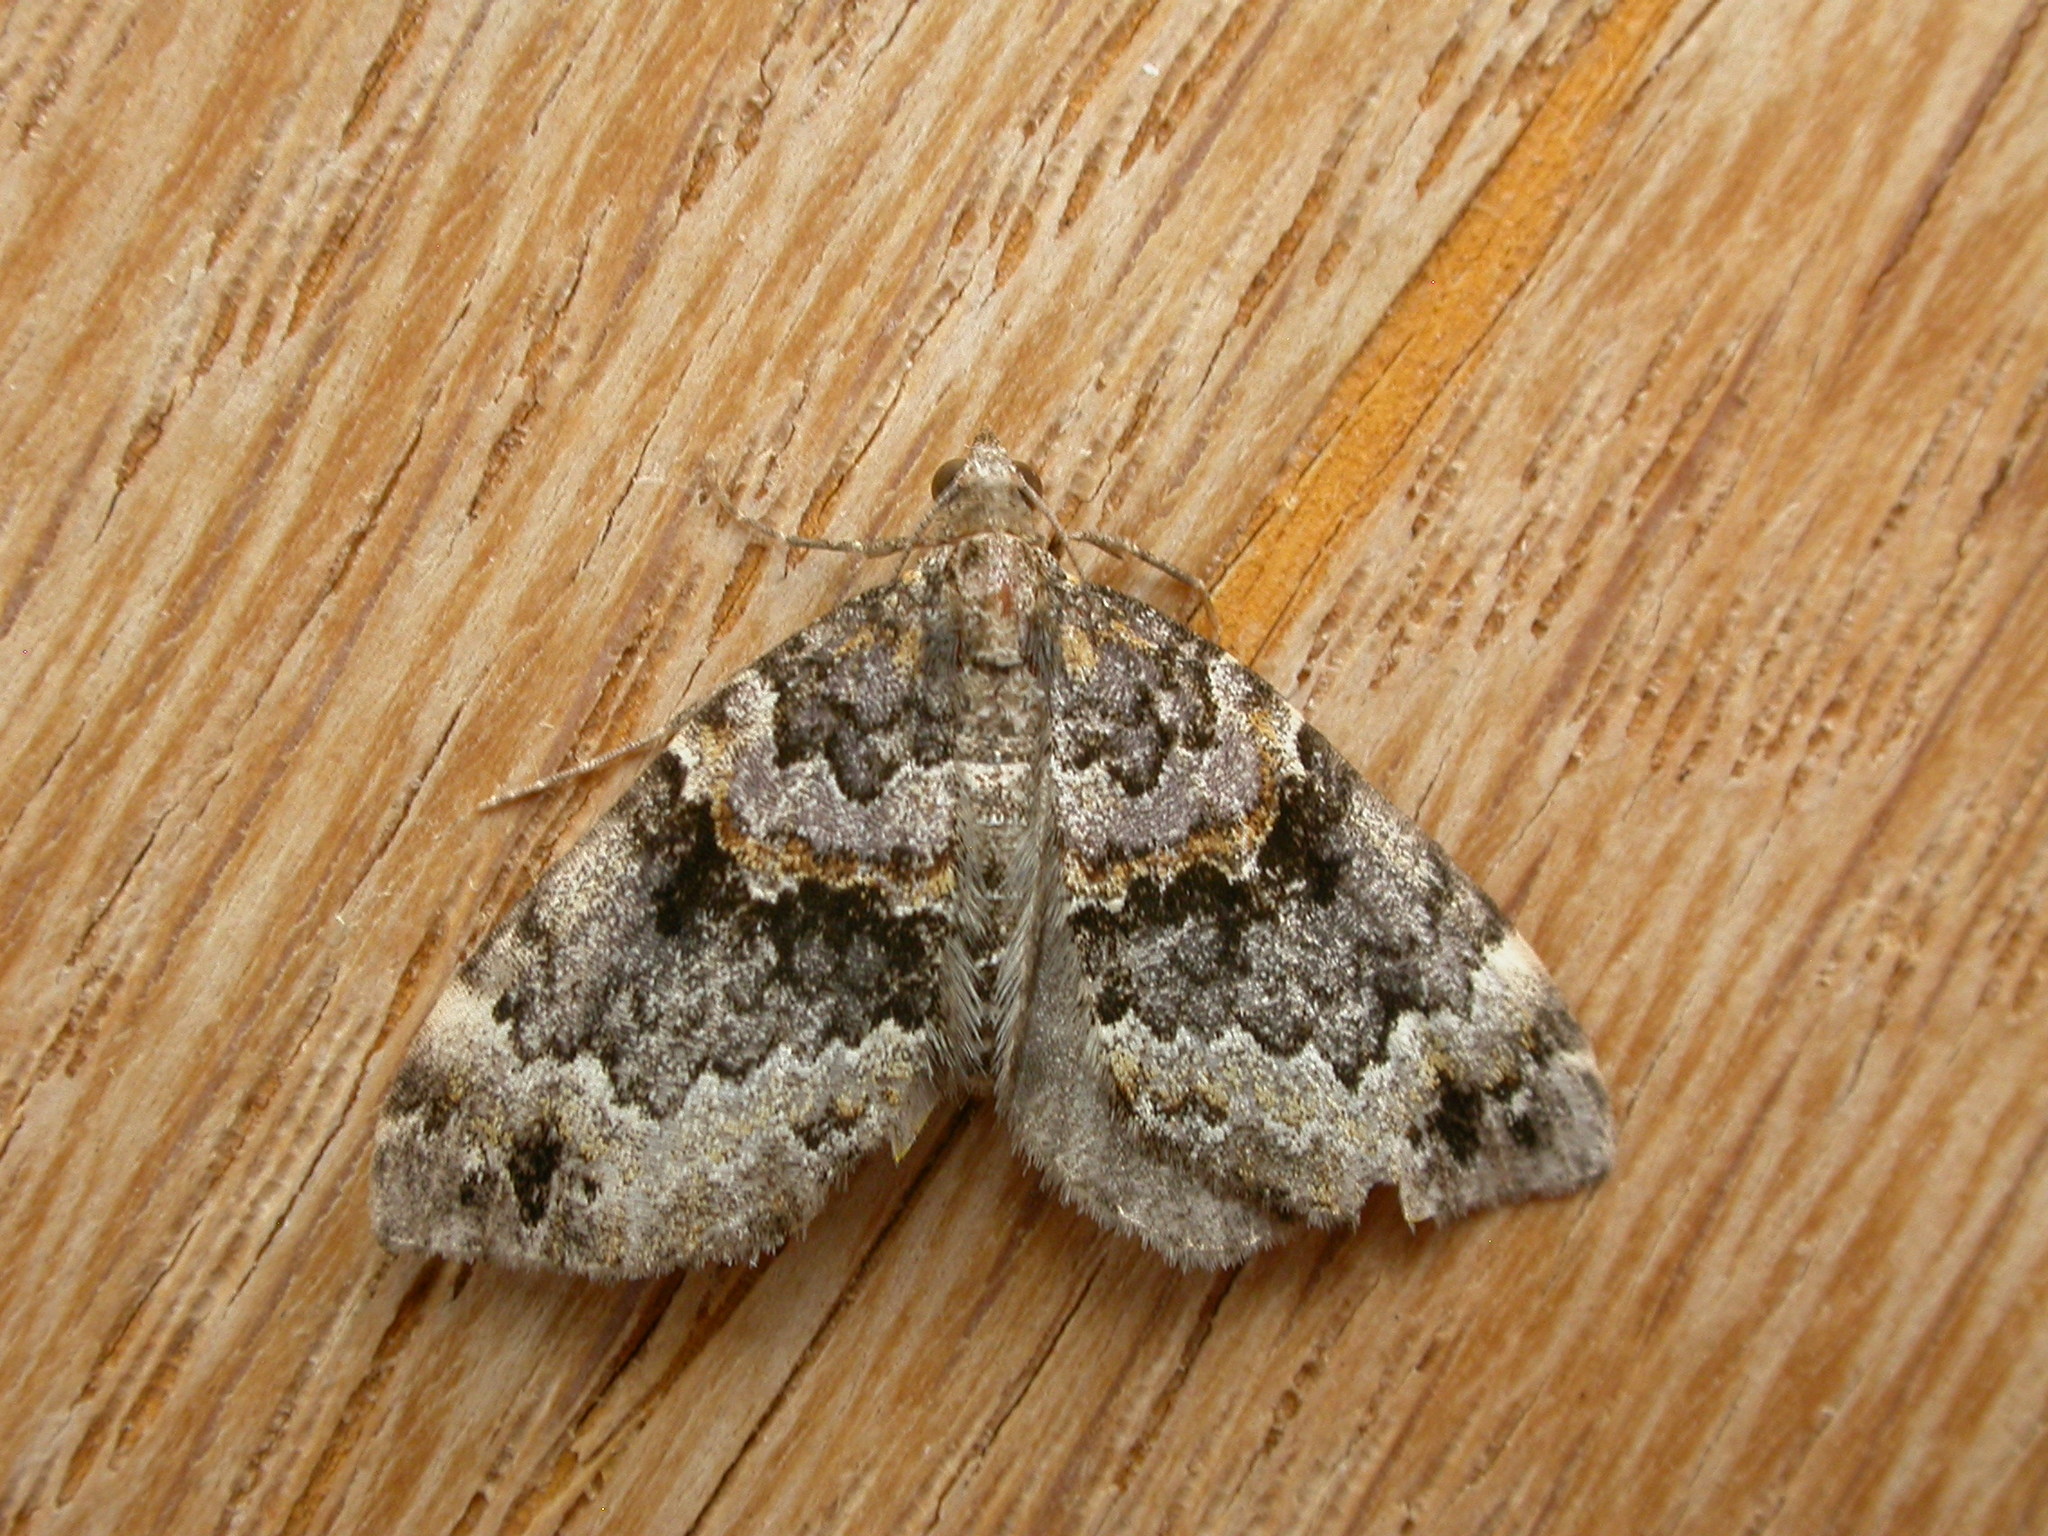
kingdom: Animalia
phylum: Arthropoda
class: Insecta
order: Lepidoptera
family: Geometridae
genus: Chaetolopha
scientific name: Chaetolopha decipiens
